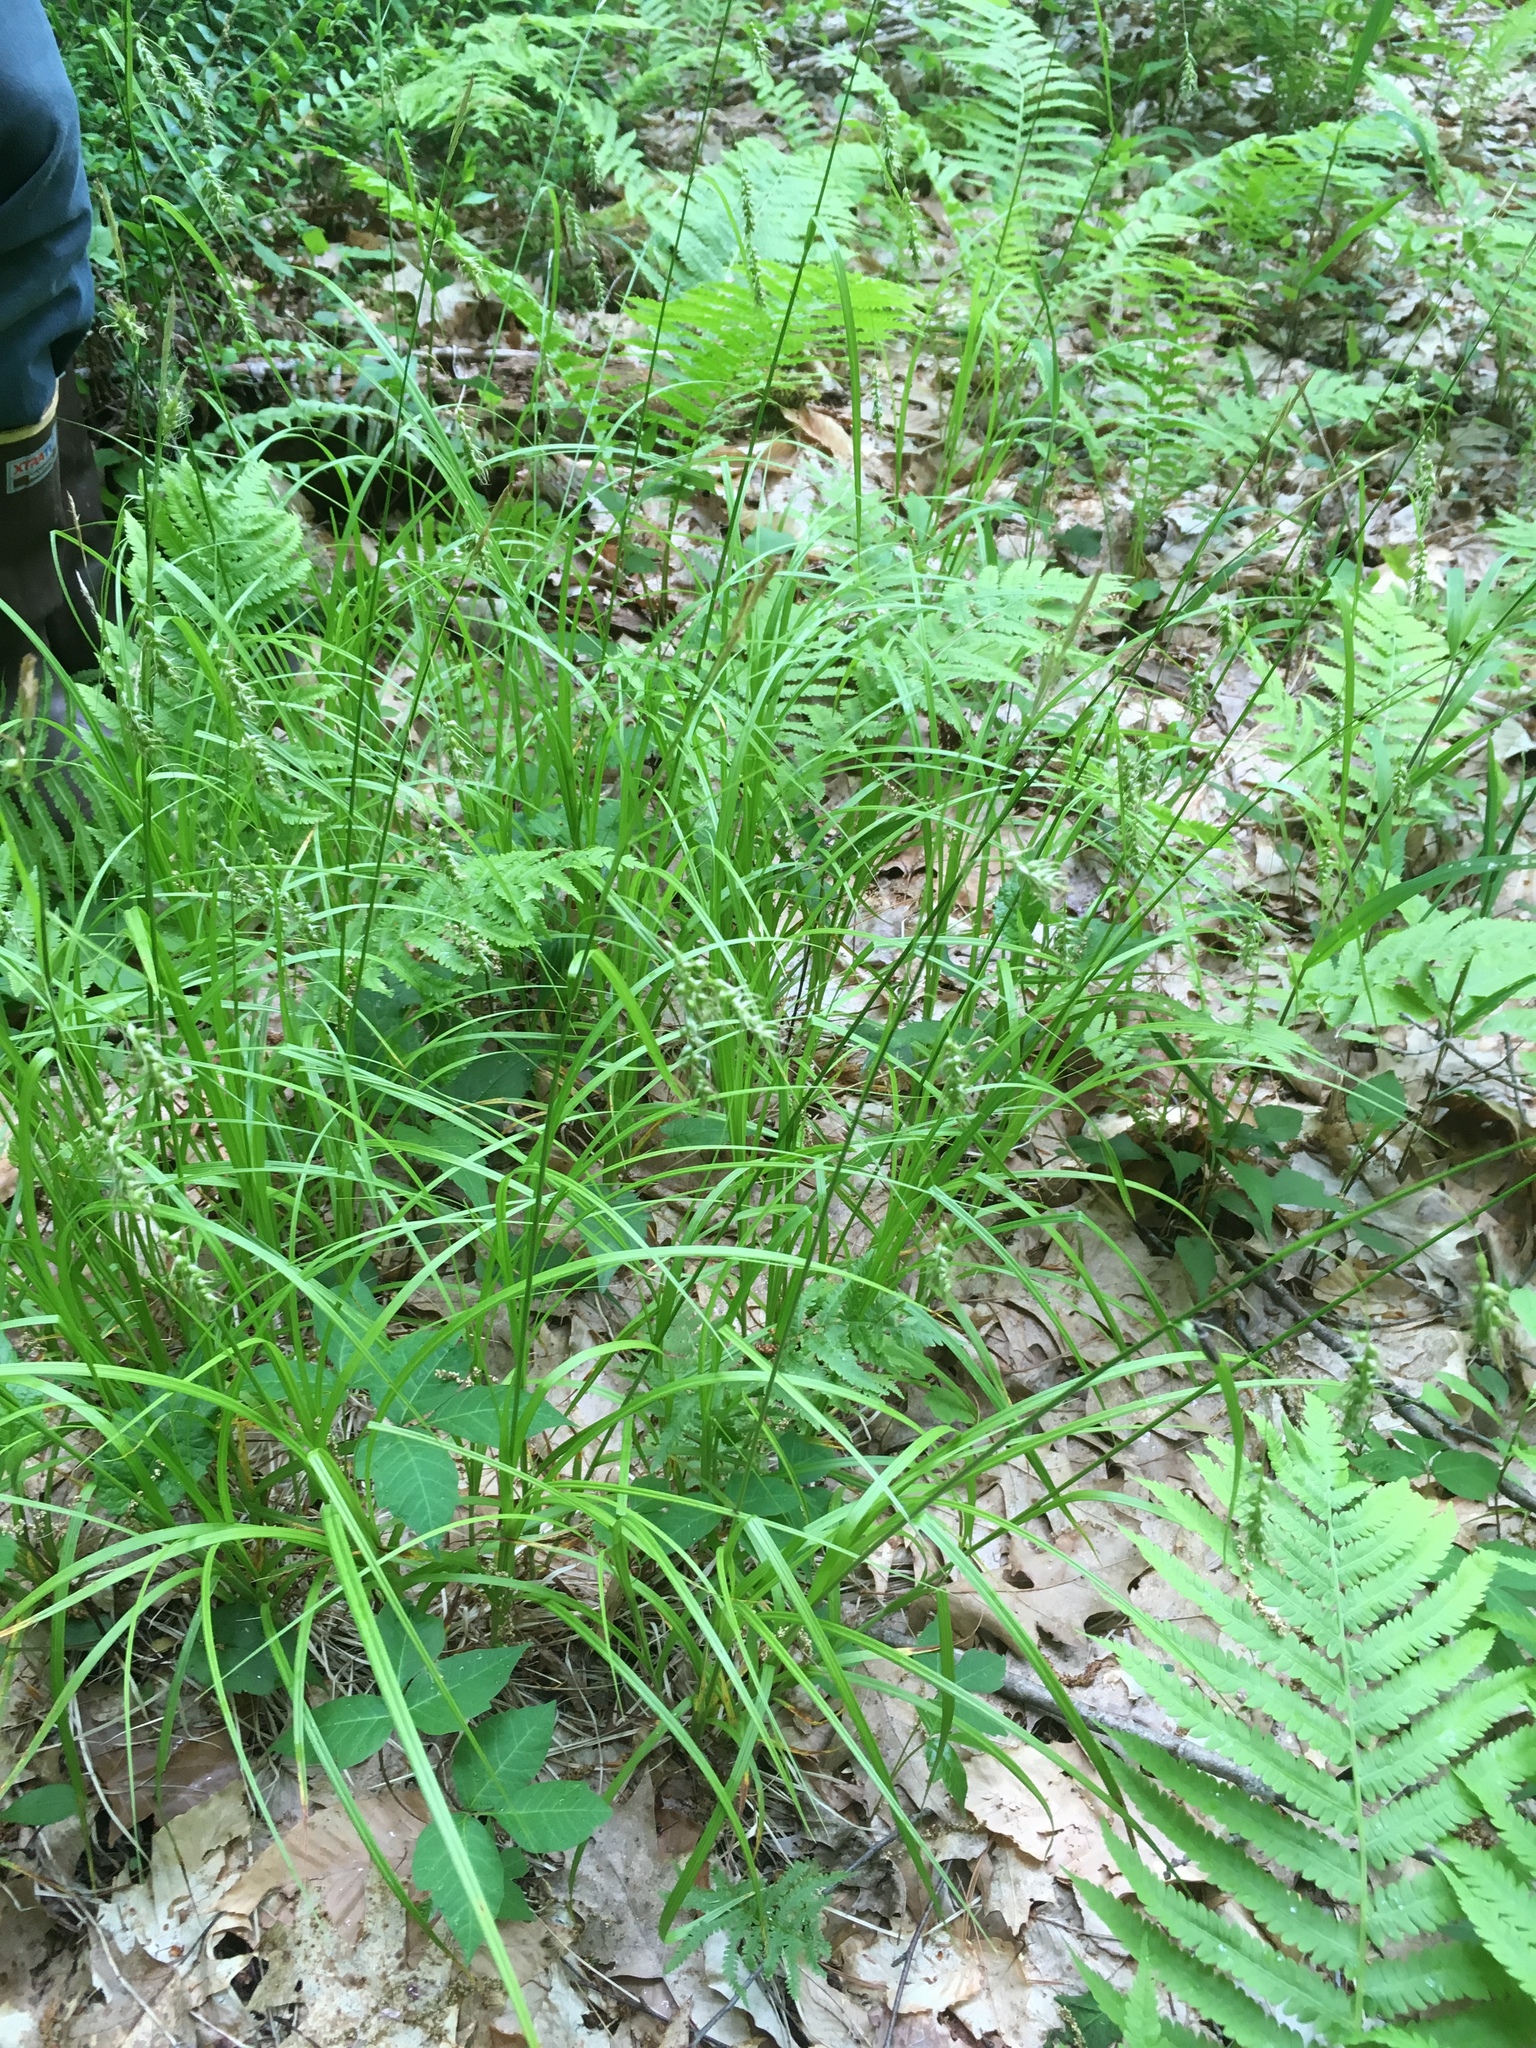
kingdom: Plantae
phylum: Tracheophyta
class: Liliopsida
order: Poales
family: Cyperaceae
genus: Carex
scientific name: Carex sprengelii
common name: Long-beaked sedge
